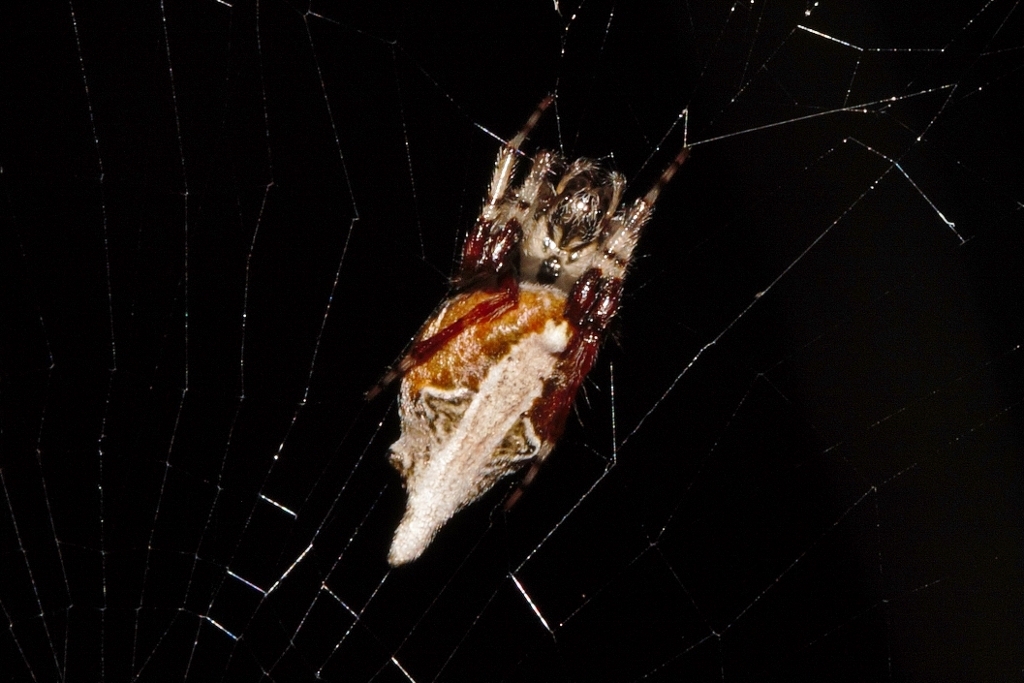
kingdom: Animalia
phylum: Arthropoda
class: Arachnida
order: Araneae
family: Araneidae
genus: Cyclosa
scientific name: Cyclosa insulana
